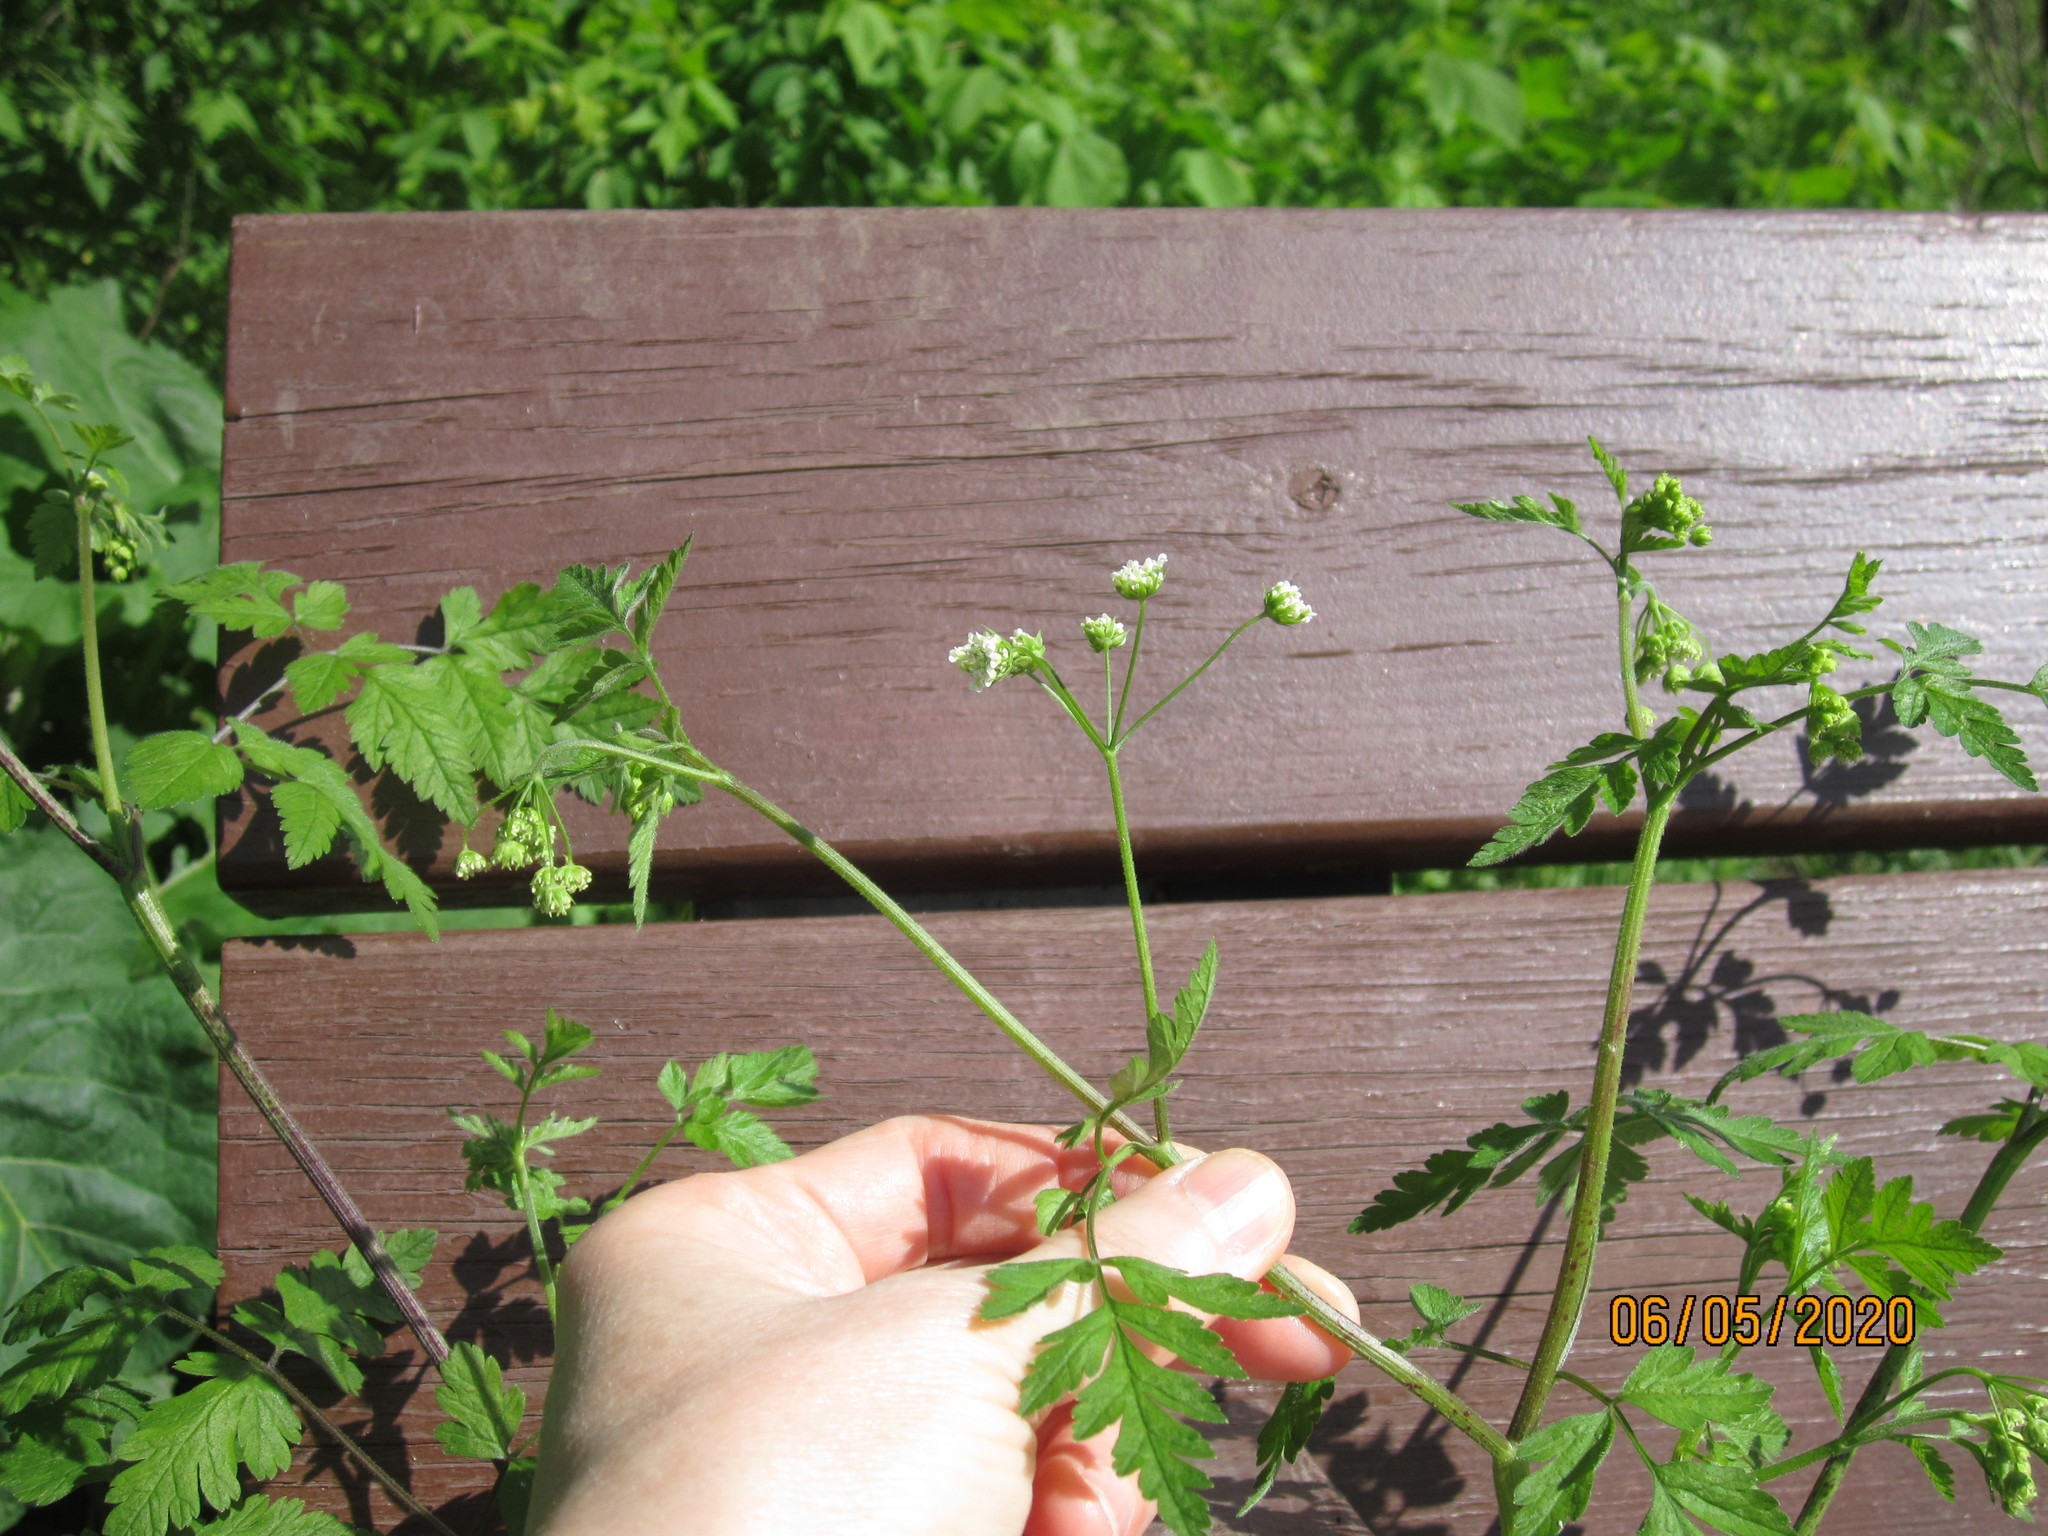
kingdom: Plantae
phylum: Tracheophyta
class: Magnoliopsida
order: Apiales
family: Apiaceae
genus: Chaerophyllum
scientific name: Chaerophyllum temulum
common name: Rough chervil
